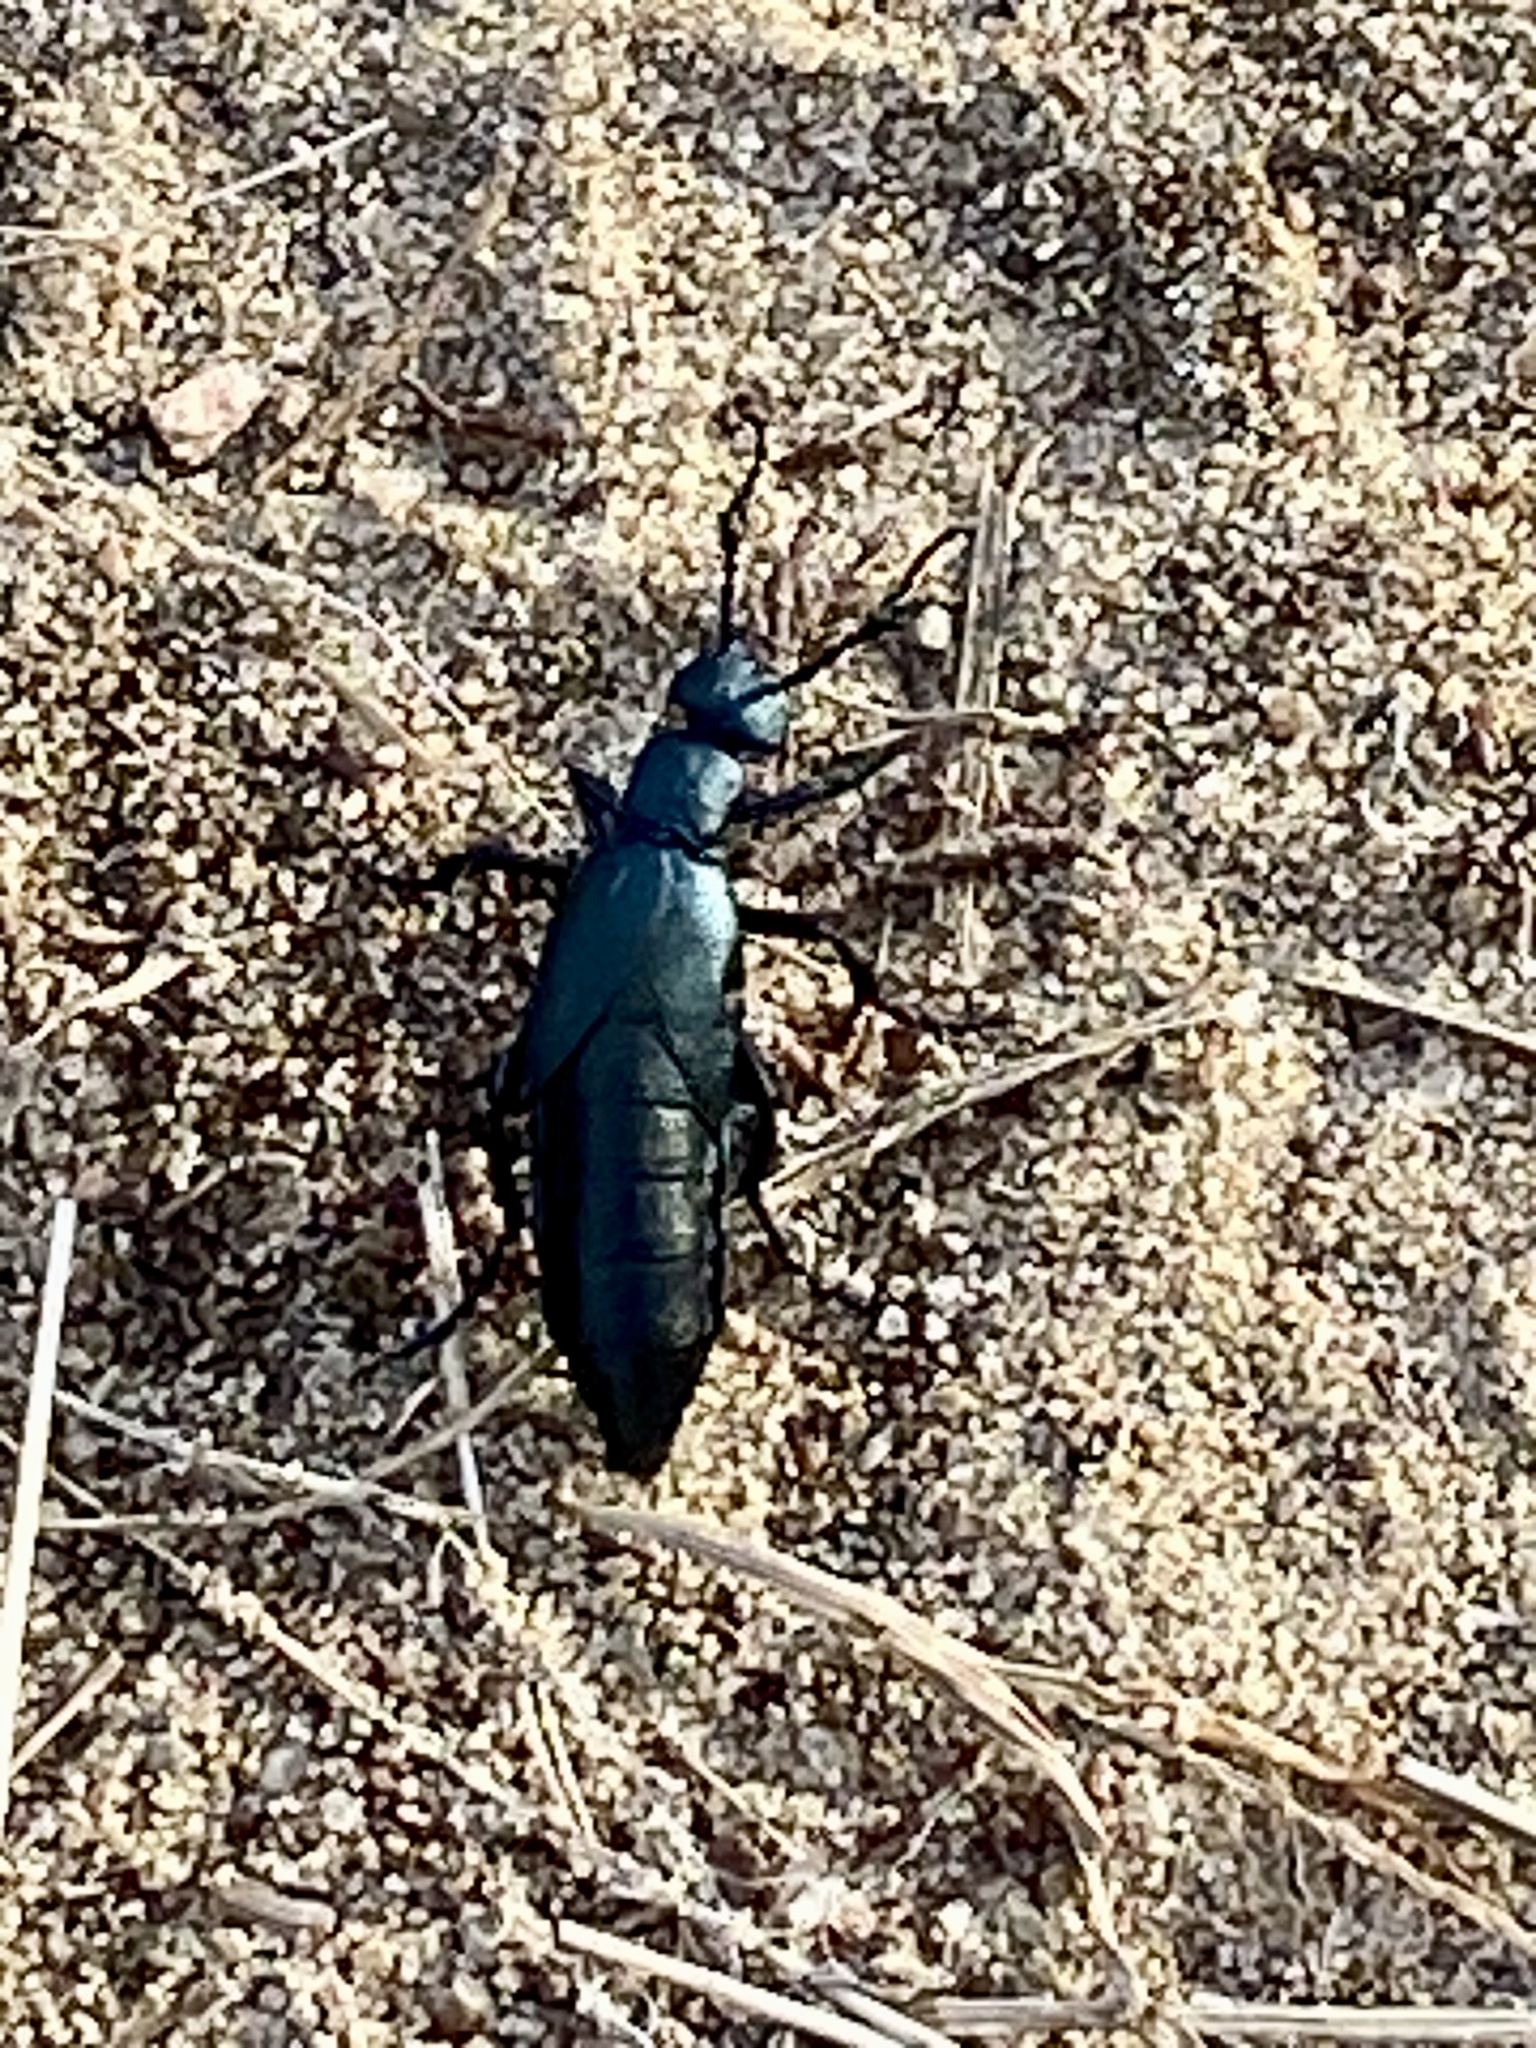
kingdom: Animalia
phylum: Arthropoda
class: Insecta
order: Coleoptera
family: Meloidae
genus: Meloe
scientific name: Meloe campanicollis
